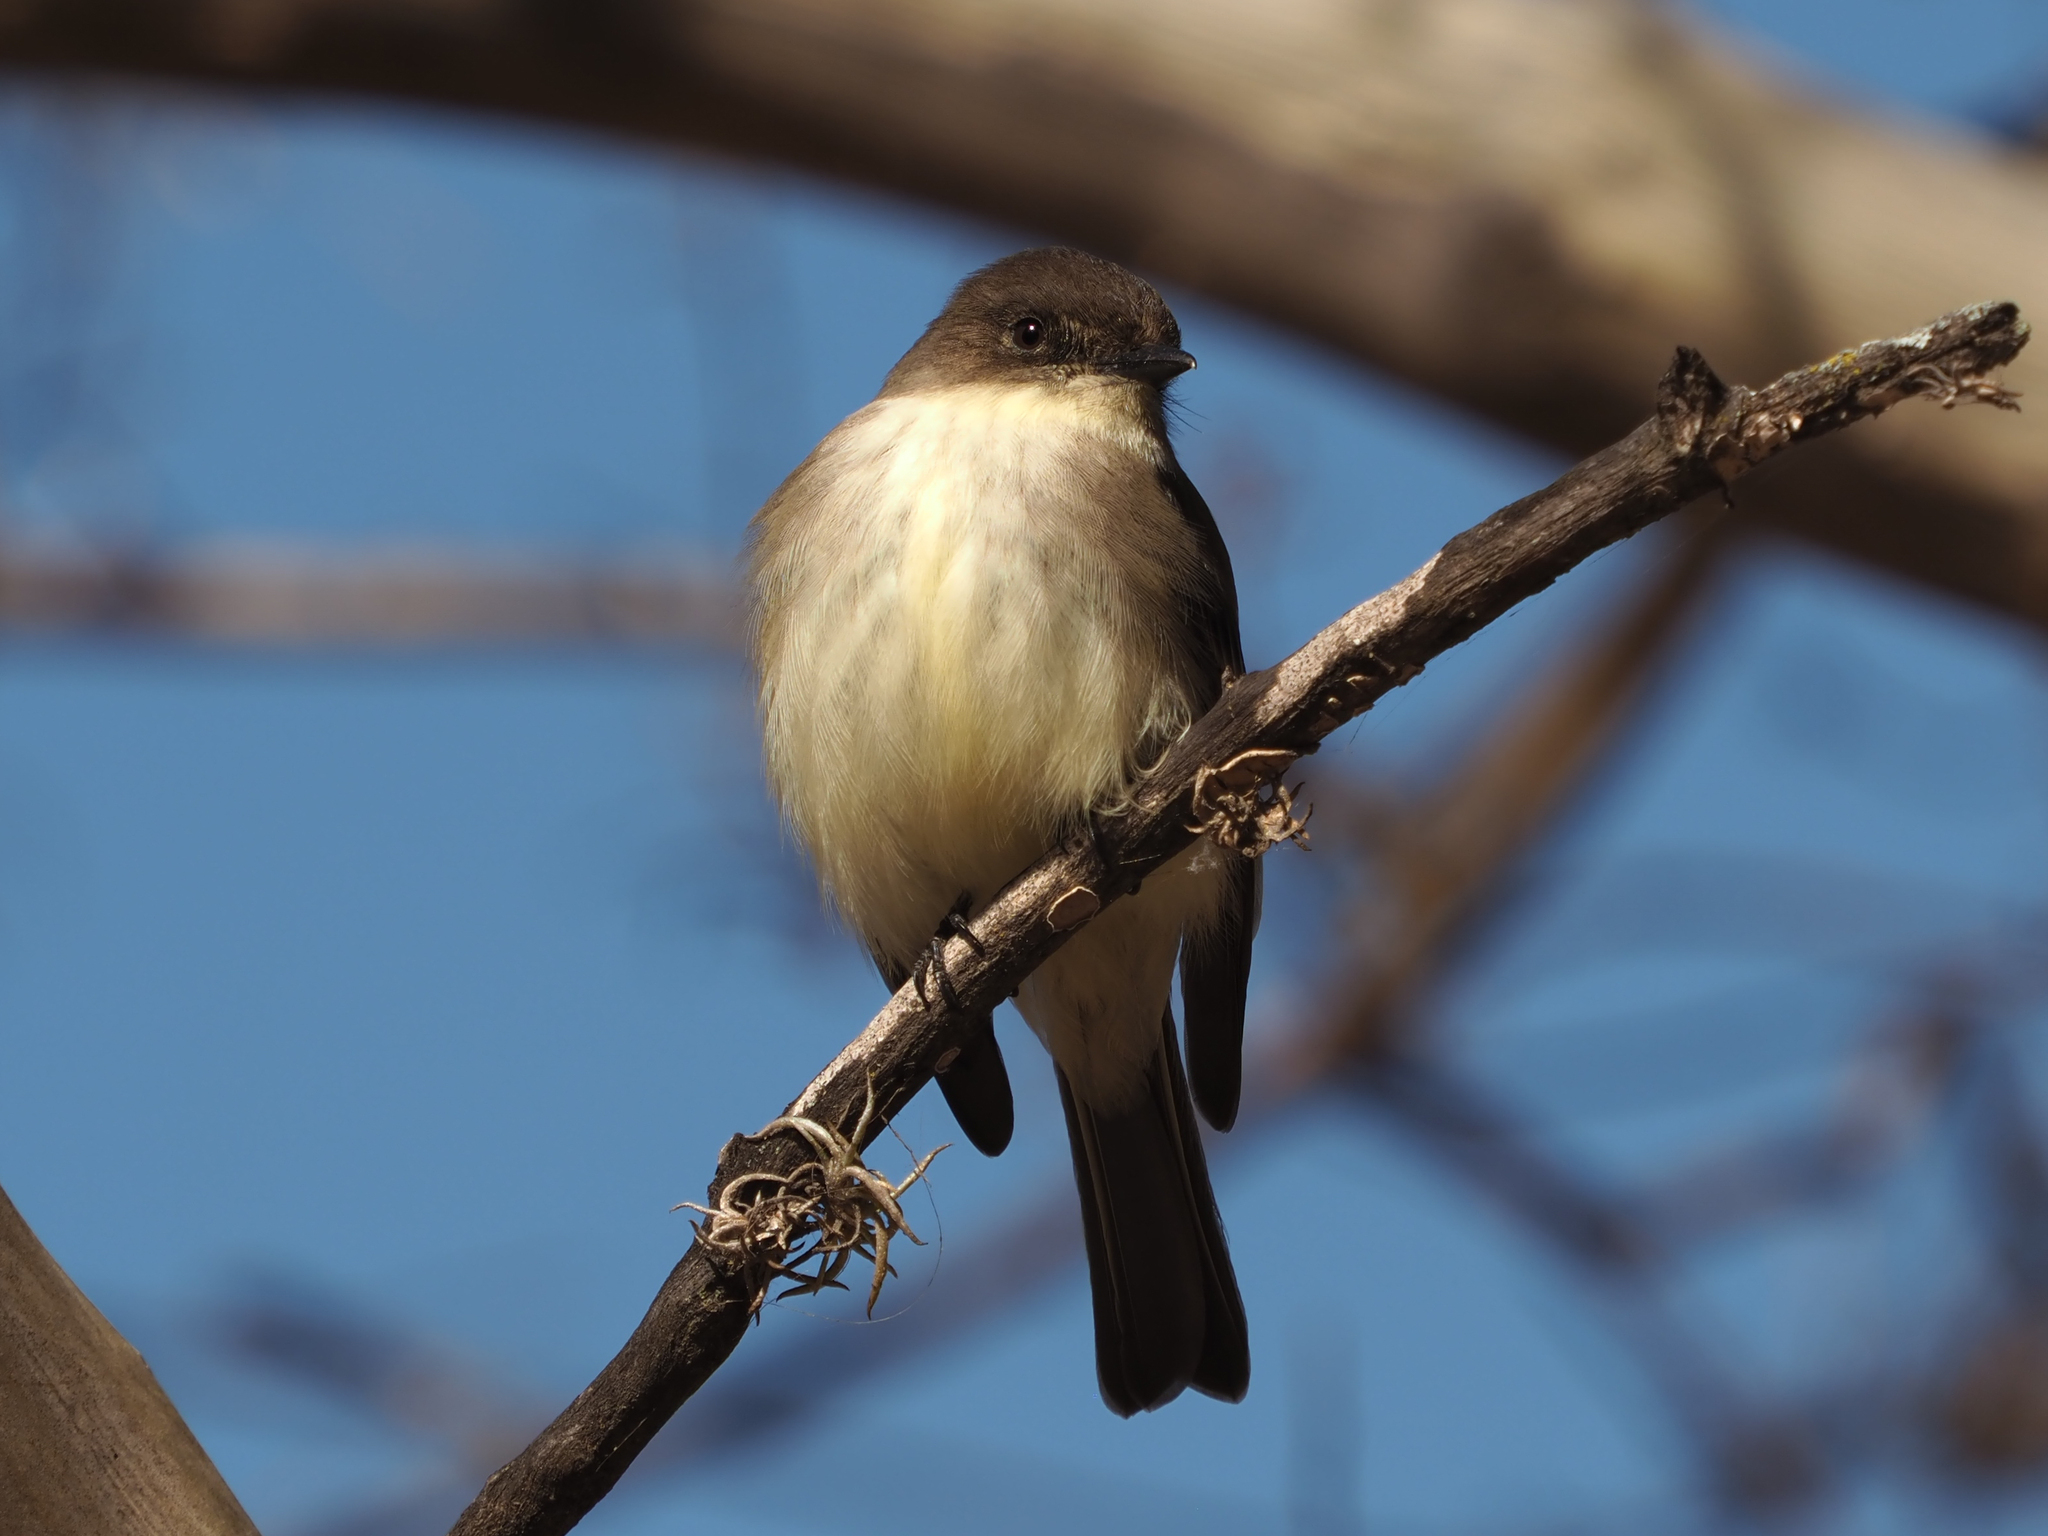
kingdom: Animalia
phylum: Chordata
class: Aves
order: Passeriformes
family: Tyrannidae
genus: Sayornis
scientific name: Sayornis phoebe
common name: Eastern phoebe
